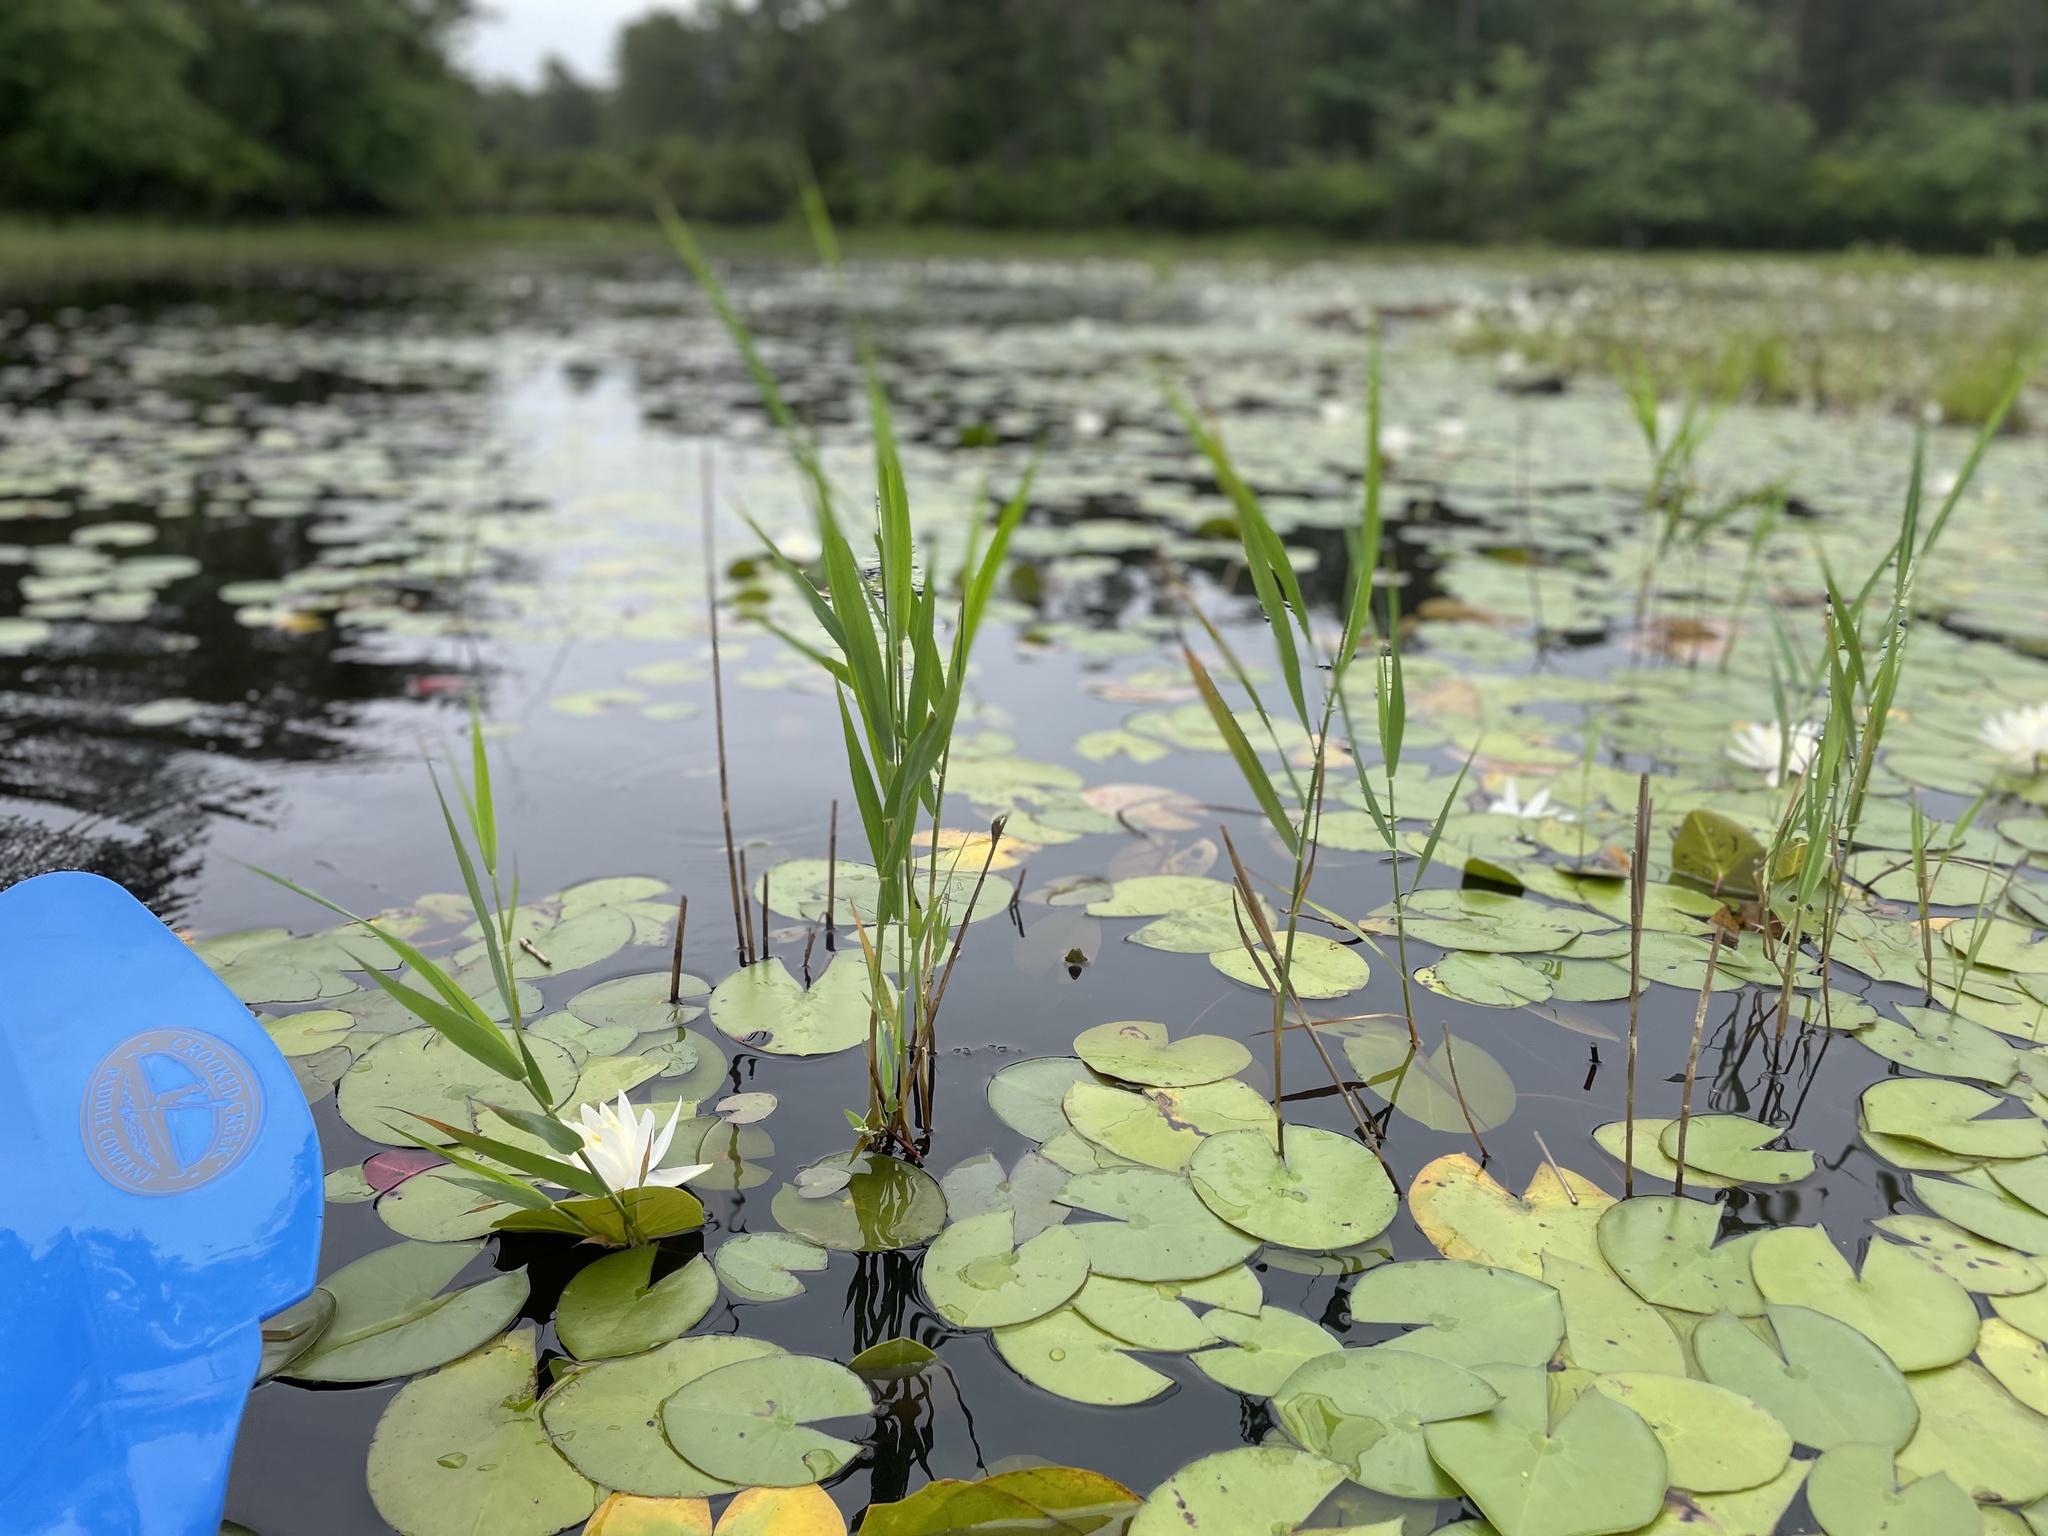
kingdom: Plantae
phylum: Tracheophyta
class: Liliopsida
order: Poales
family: Poaceae
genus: Phragmites
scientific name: Phragmites australis
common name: Common reed
